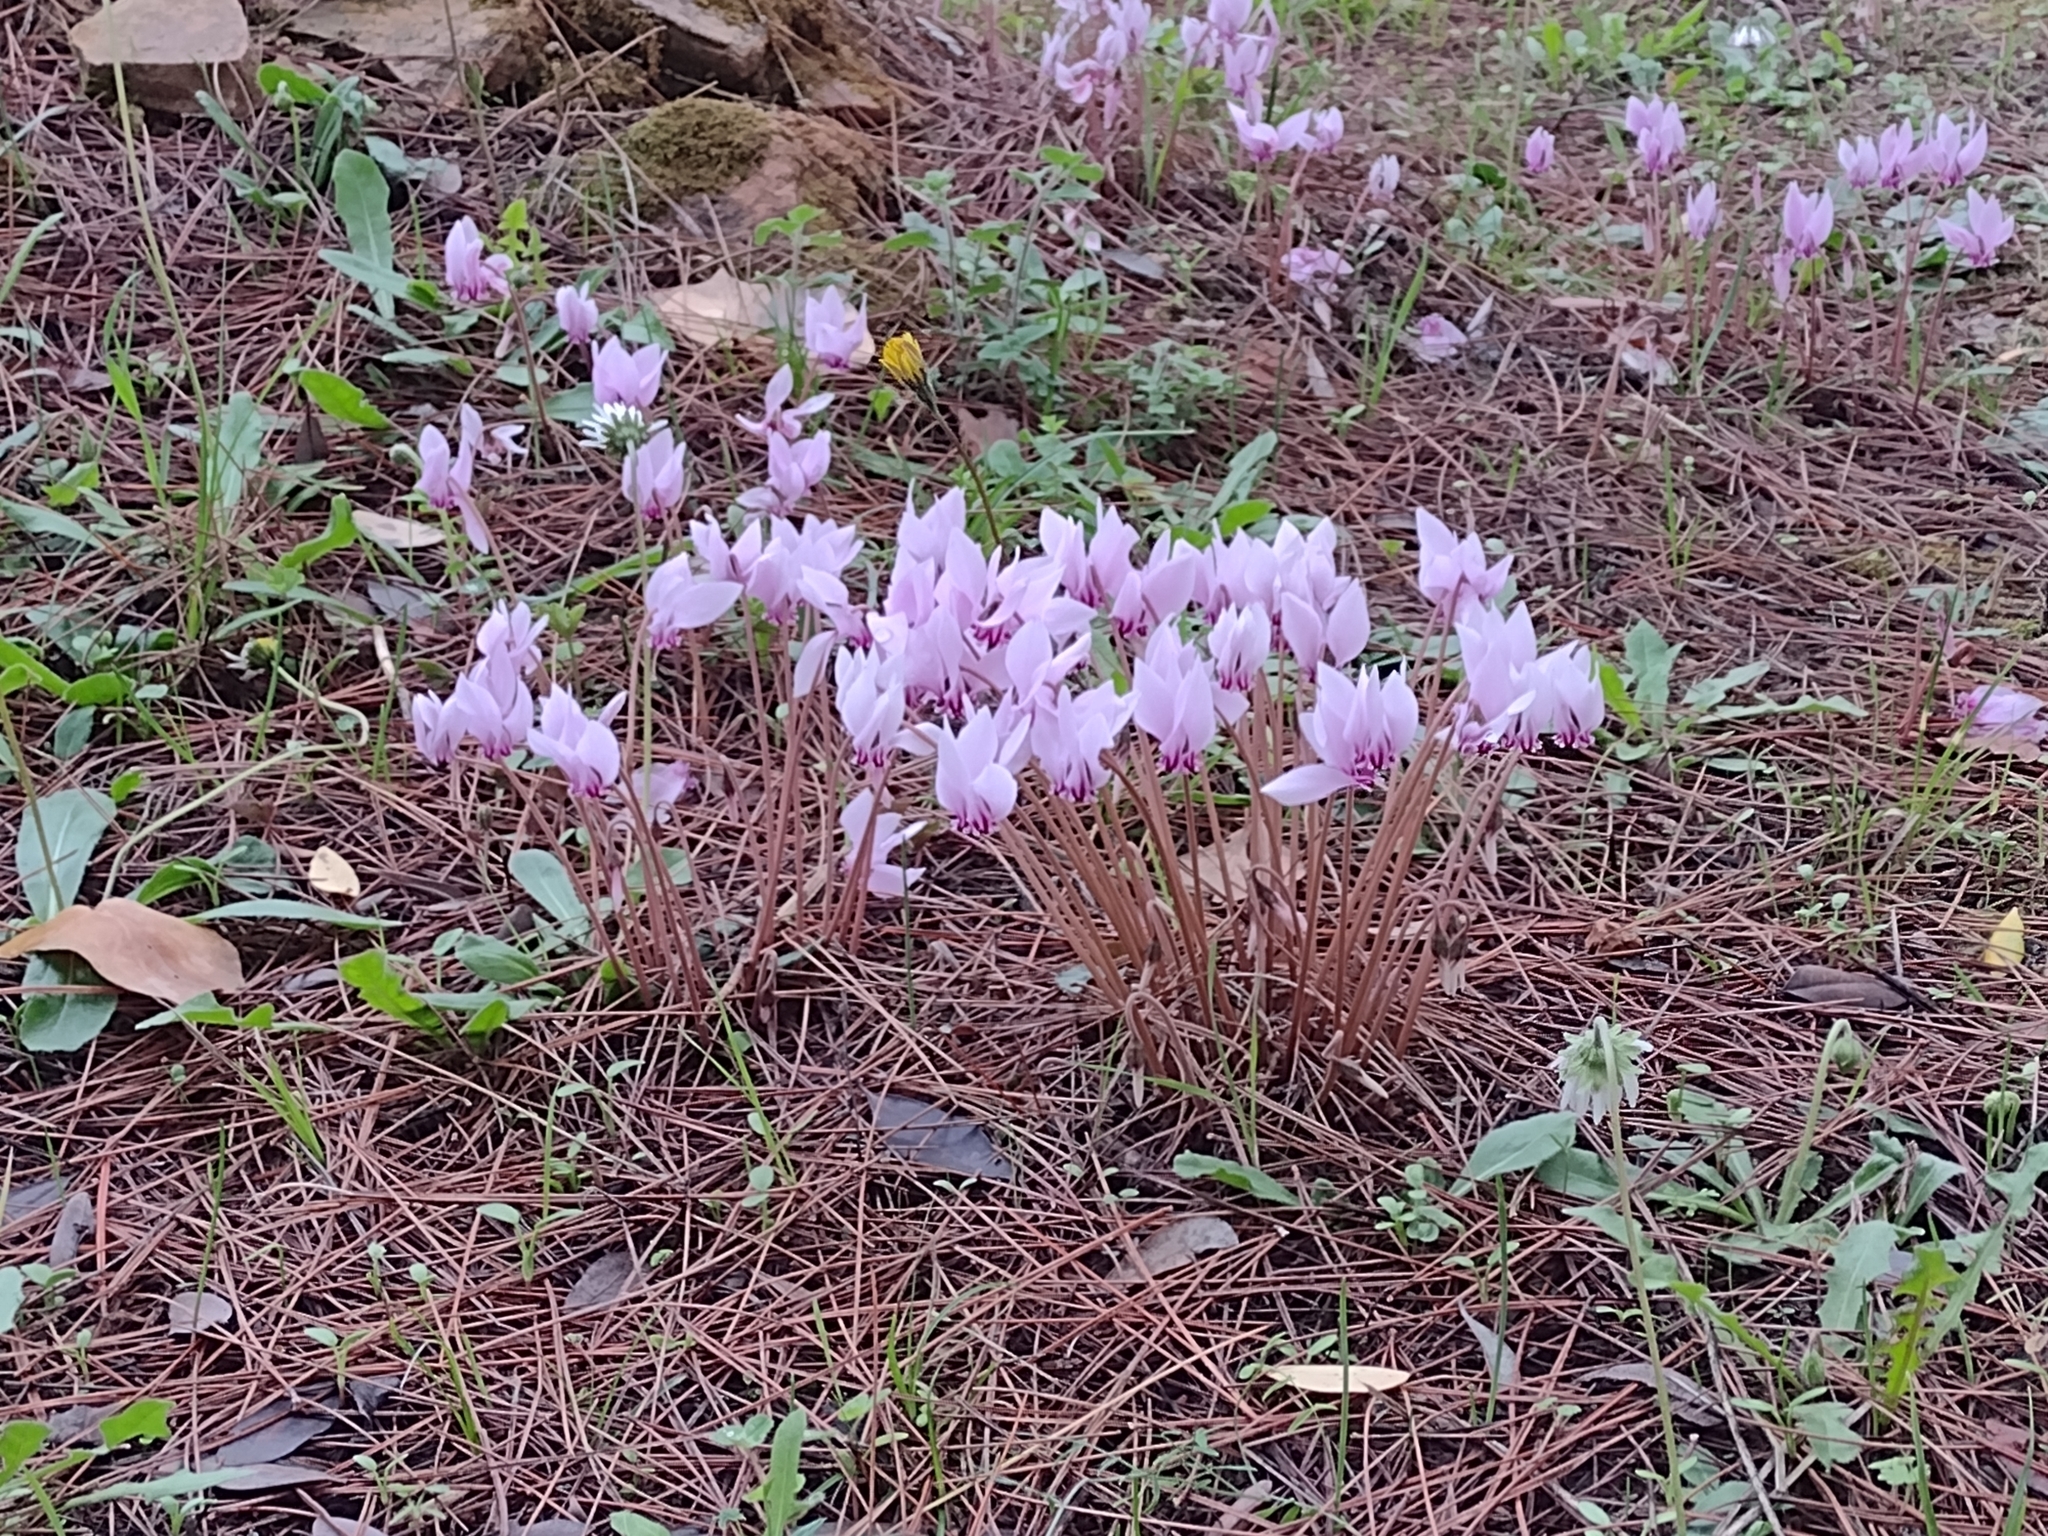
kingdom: Plantae
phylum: Tracheophyta
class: Magnoliopsida
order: Ericales
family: Primulaceae
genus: Cyclamen
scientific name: Cyclamen hederifolium
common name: Sowbread
